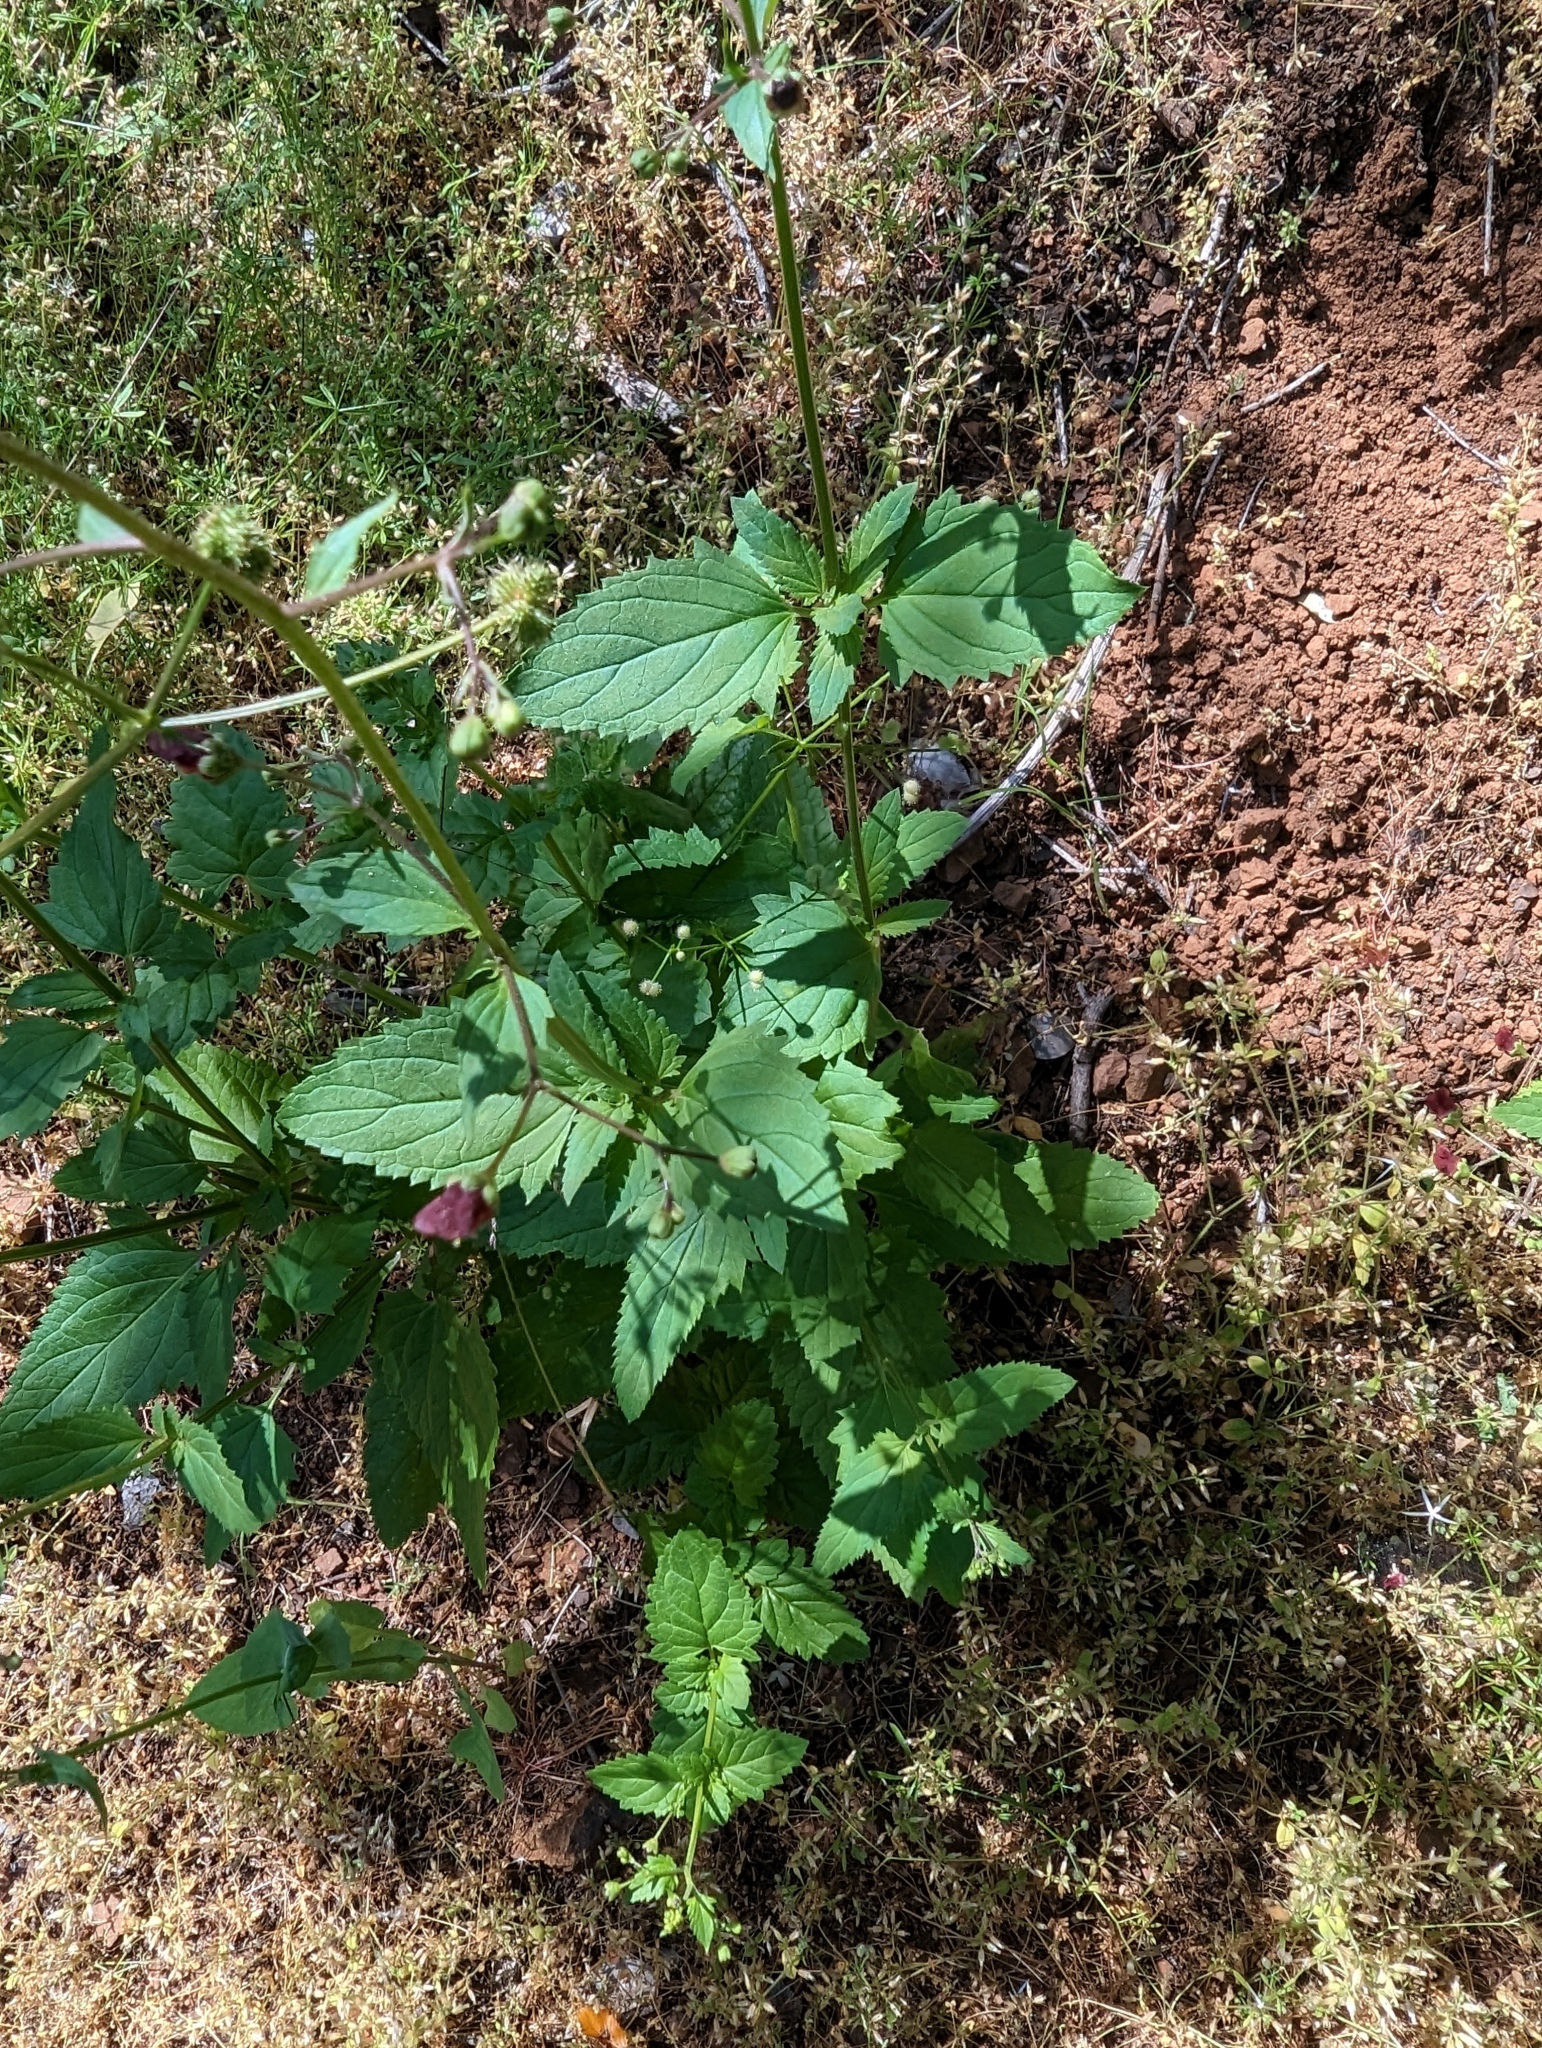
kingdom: Plantae
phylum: Tracheophyta
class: Magnoliopsida
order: Lamiales
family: Scrophulariaceae
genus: Scrophularia
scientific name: Scrophularia californica
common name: California figwort
